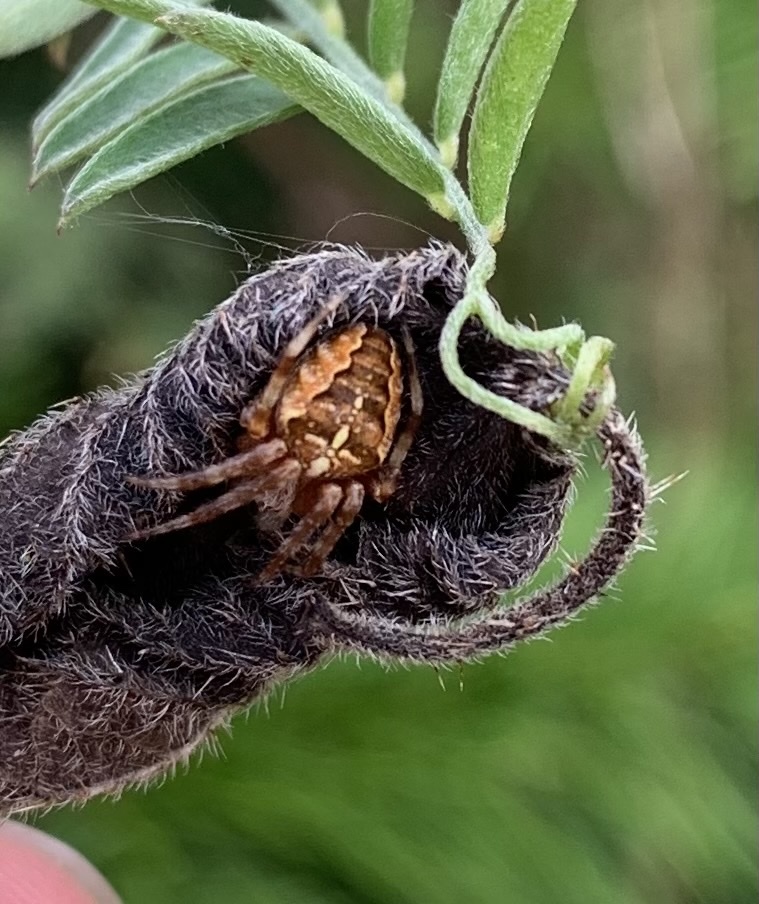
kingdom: Animalia
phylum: Arthropoda
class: Arachnida
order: Araneae
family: Araneidae
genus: Araneus
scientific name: Araneus diadematus
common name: Cross orbweaver
